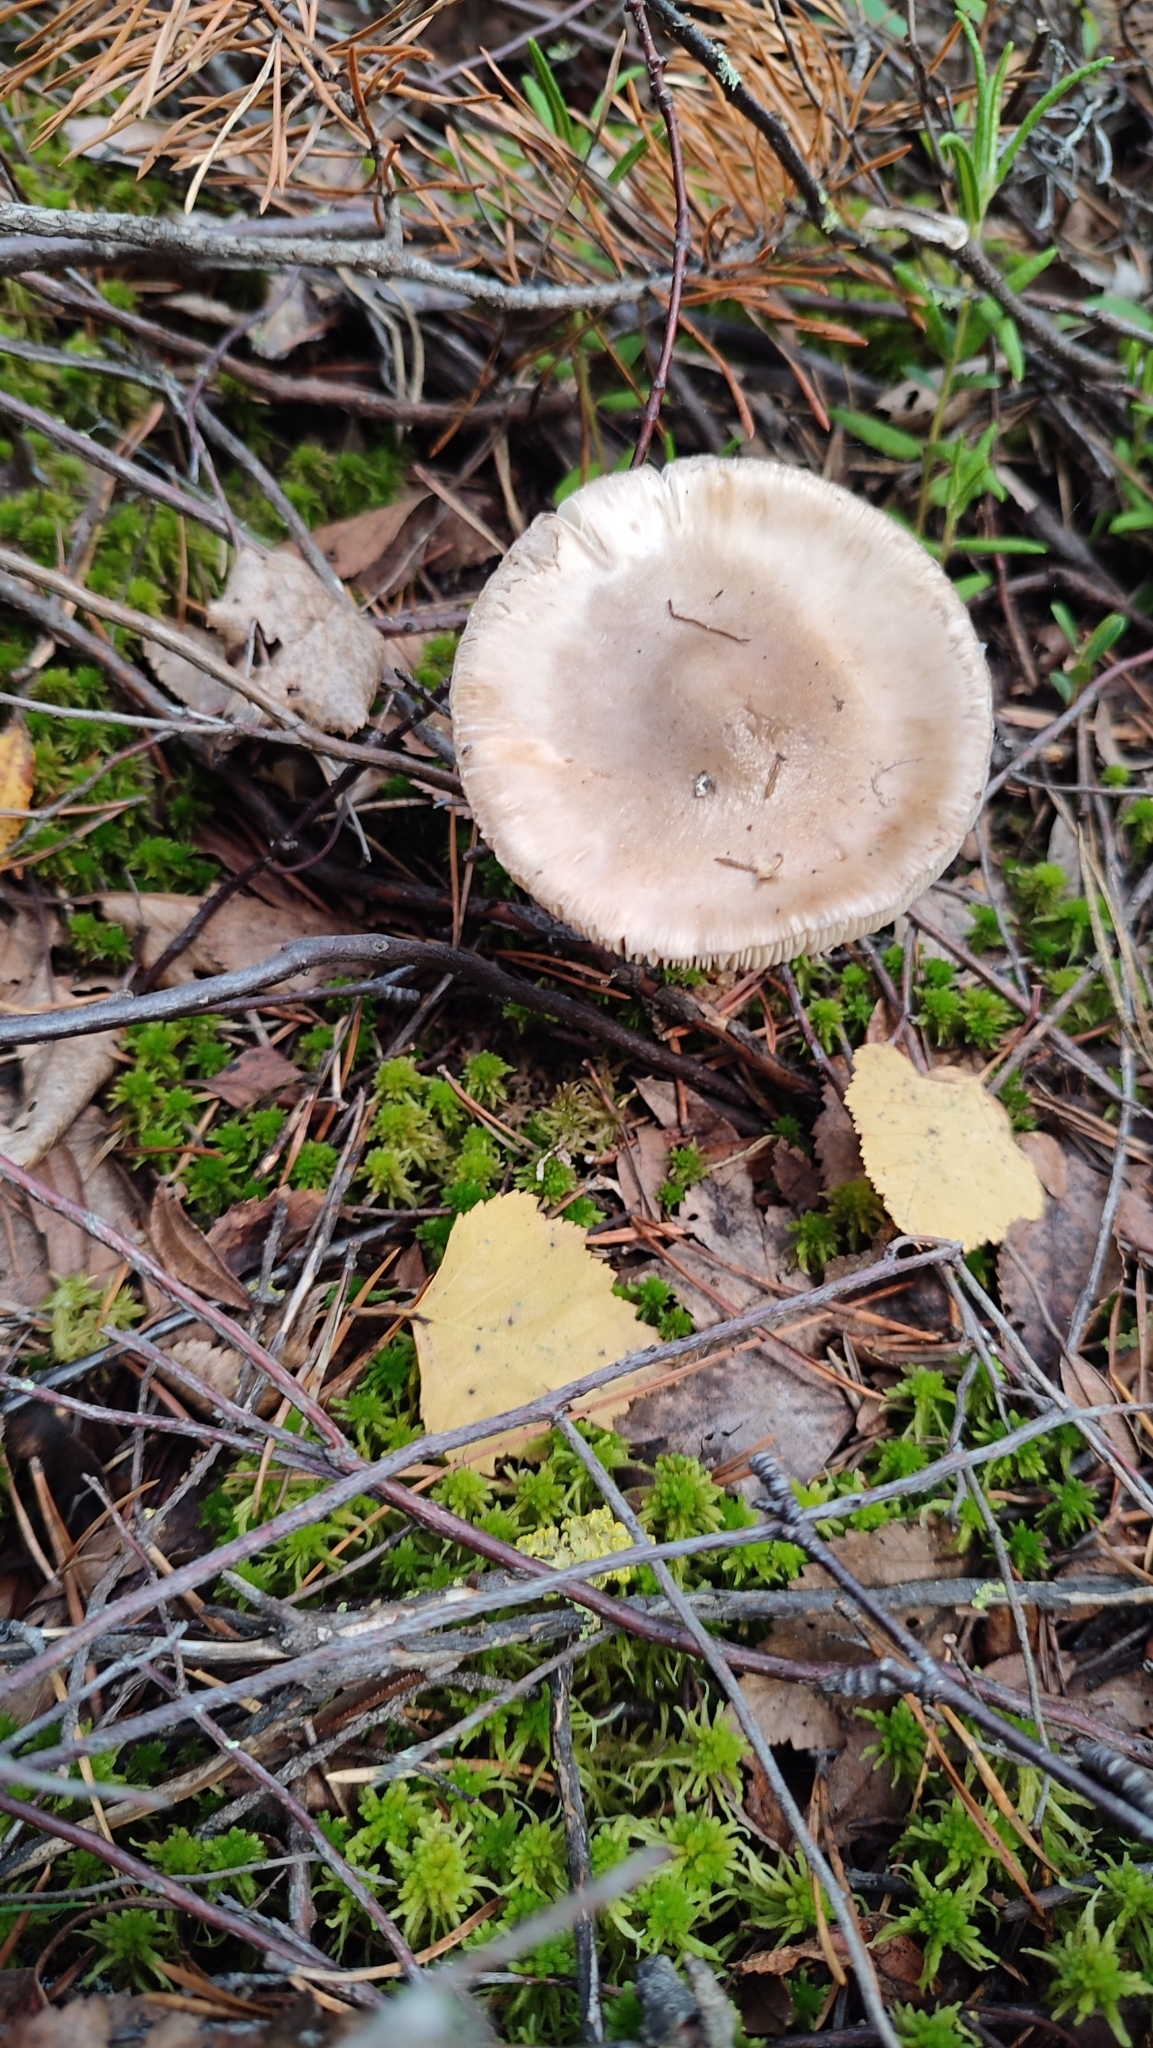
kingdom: Fungi
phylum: Basidiomycota
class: Agaricomycetes
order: Agaricales
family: Amanitaceae
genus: Amanita
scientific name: Amanita porphyria
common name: Grey veiled amanita
